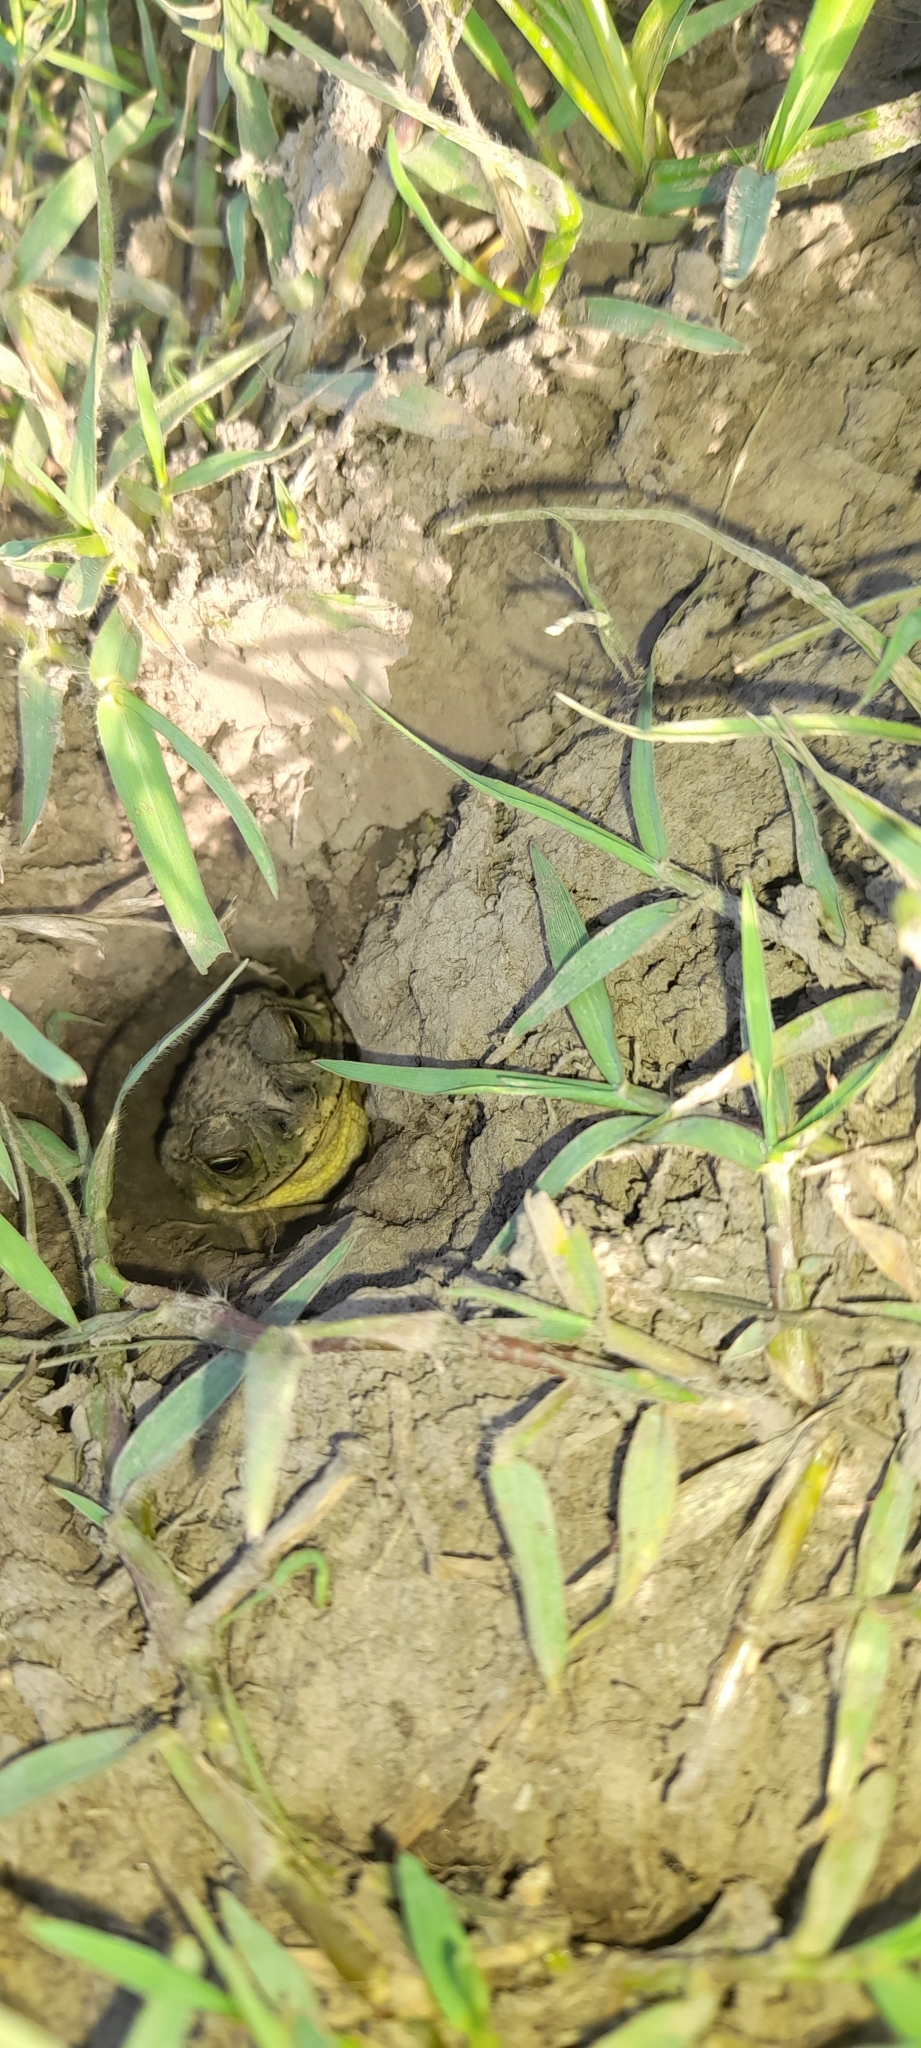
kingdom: Animalia
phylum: Chordata
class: Amphibia
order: Anura
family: Bufonidae
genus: Rhinella
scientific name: Rhinella dorbignyi
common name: D´orbigny’s toad
